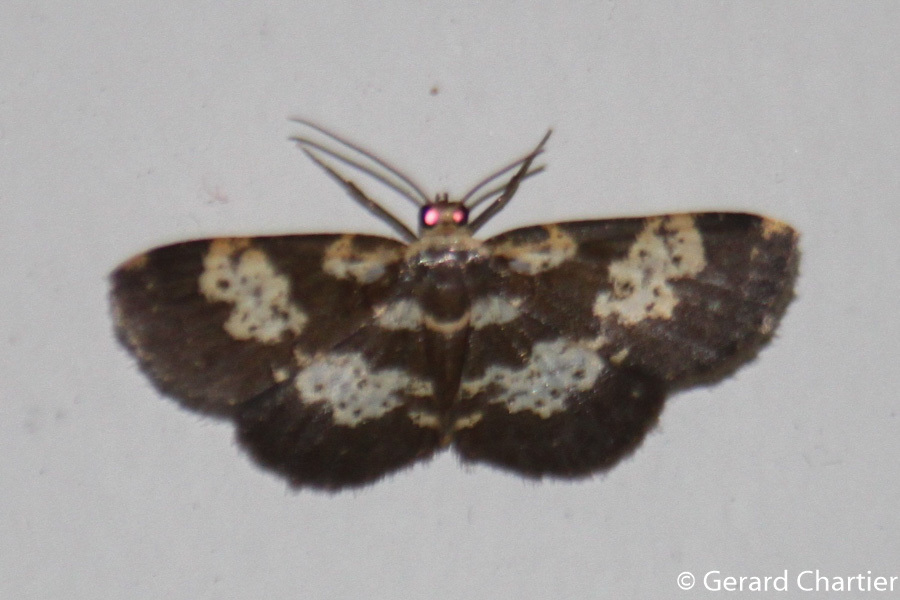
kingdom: Animalia
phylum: Arthropoda
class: Insecta
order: Lepidoptera
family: Geometridae
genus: Peratophyga
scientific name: Peratophyga bifasciata
